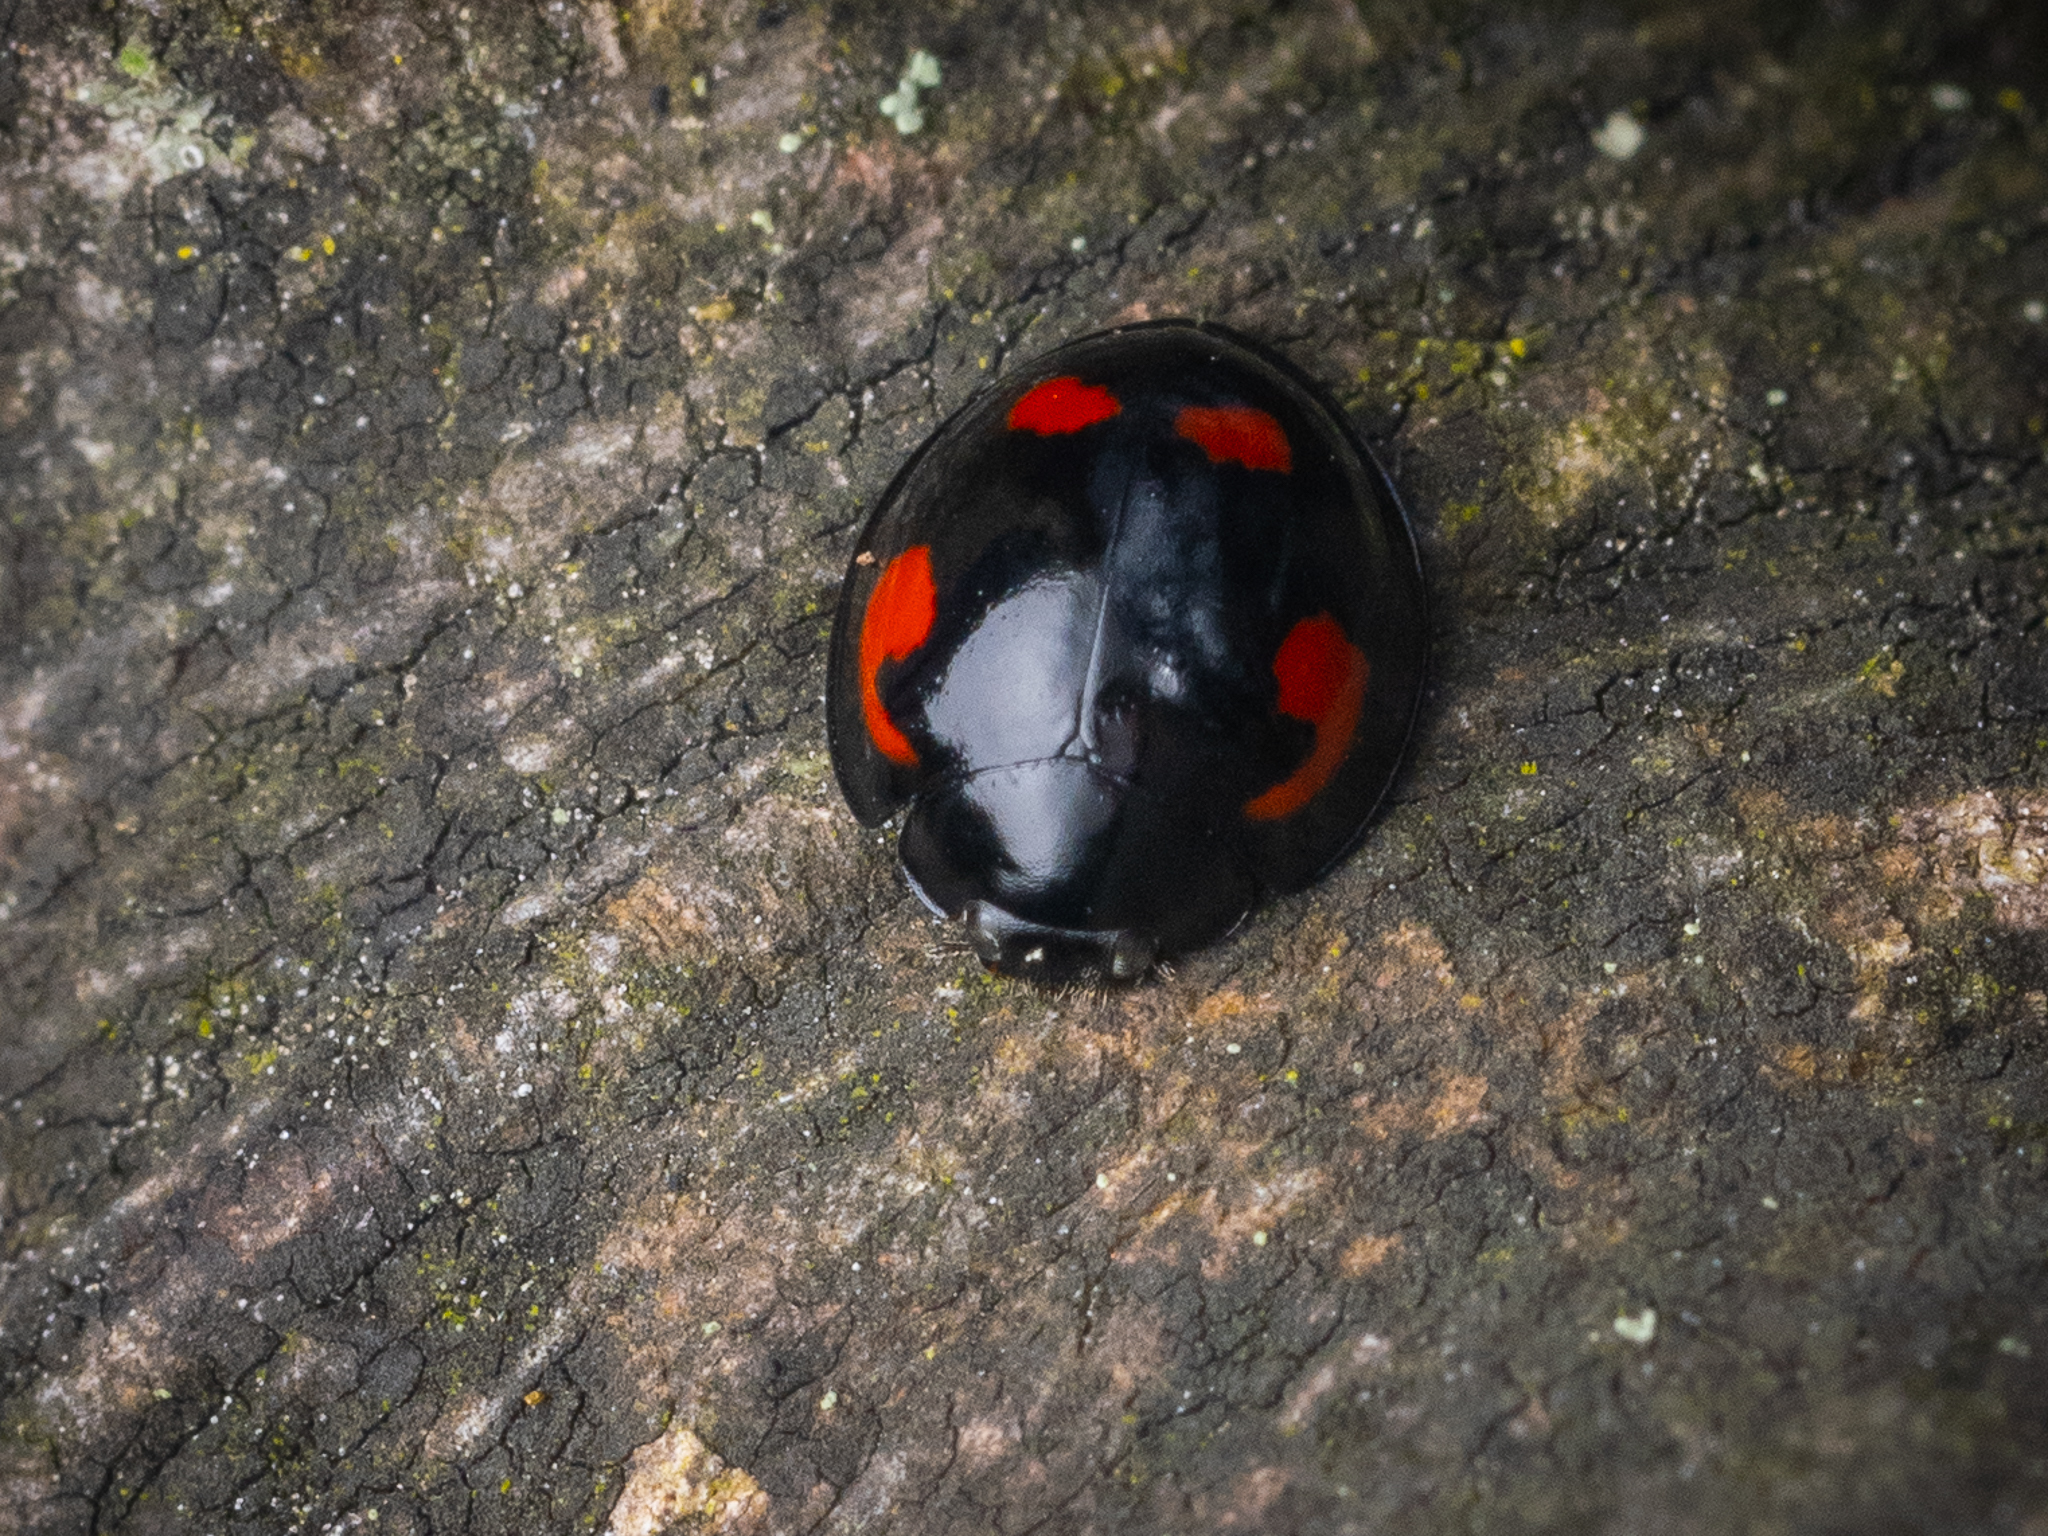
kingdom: Animalia
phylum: Arthropoda
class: Insecta
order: Coleoptera
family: Coccinellidae
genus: Brumus
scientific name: Brumus quadripustulatus
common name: Ladybird beetle
